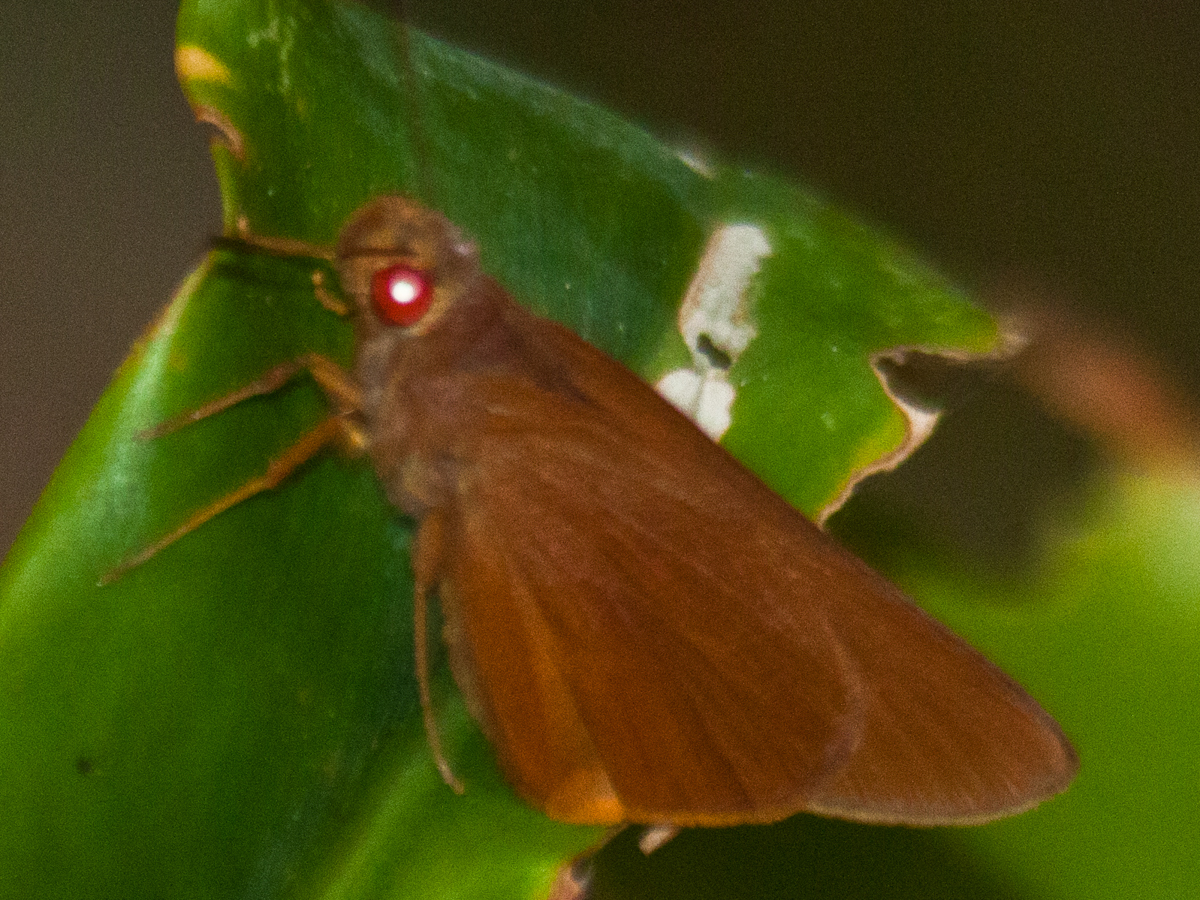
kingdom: Animalia
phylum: Arthropoda
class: Insecta
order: Lepidoptera
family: Hesperiidae
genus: Matapa
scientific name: Matapa druna
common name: Grey-brand redeye
